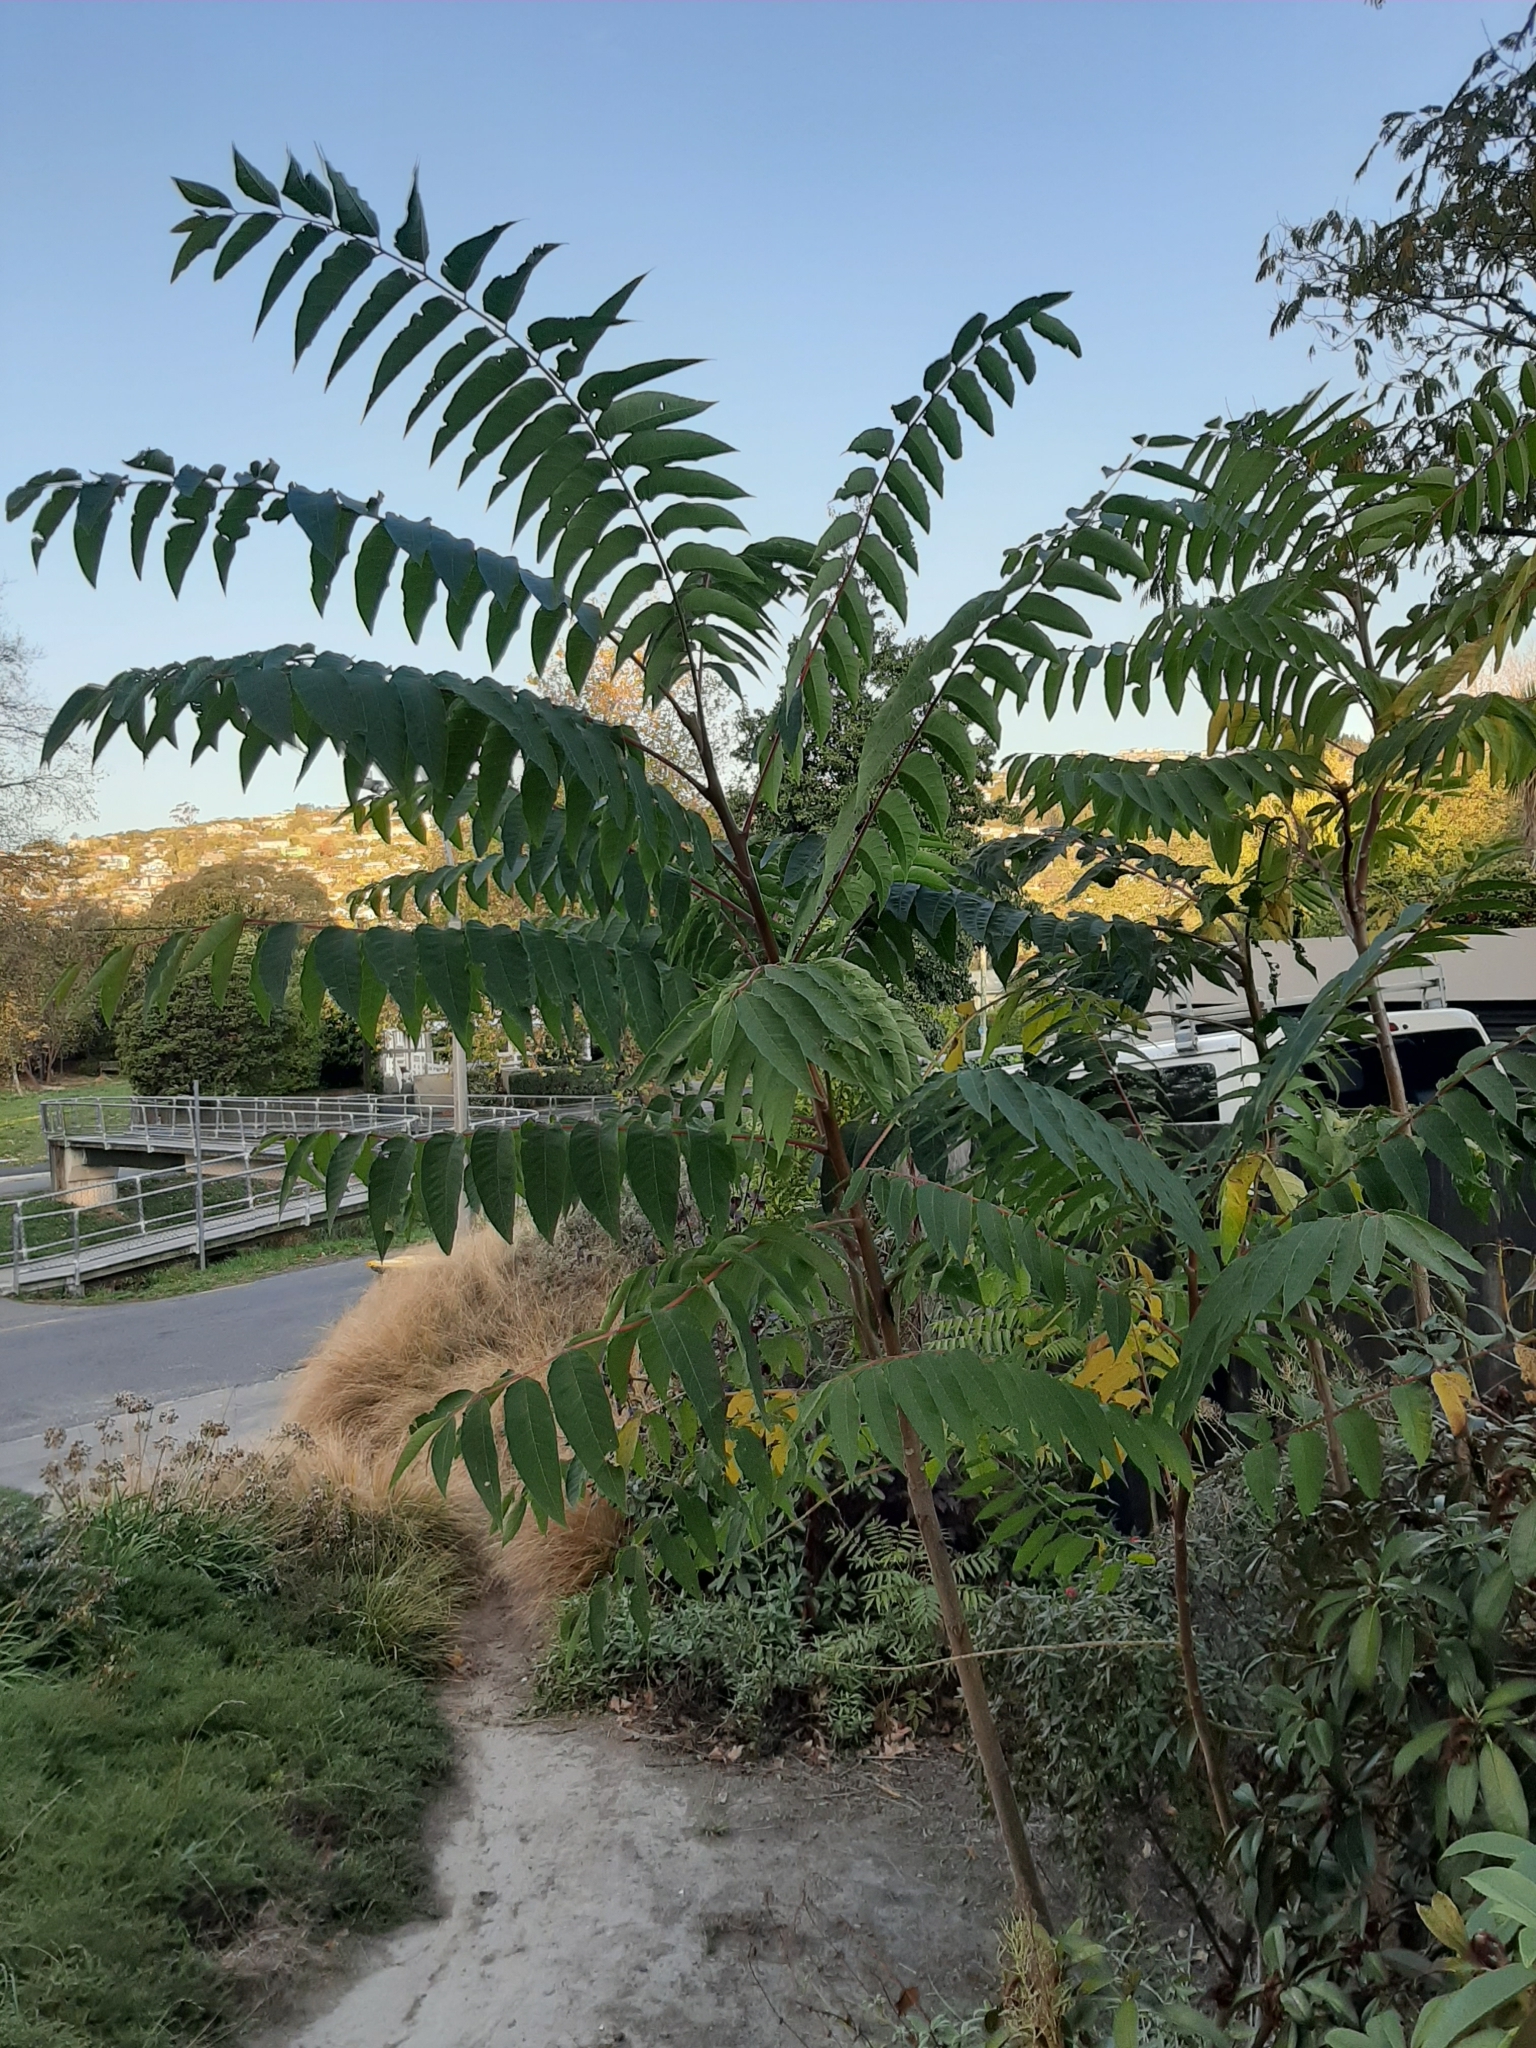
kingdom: Plantae
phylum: Tracheophyta
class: Magnoliopsida
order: Sapindales
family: Simaroubaceae
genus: Ailanthus
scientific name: Ailanthus altissima
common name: Tree-of-heaven
